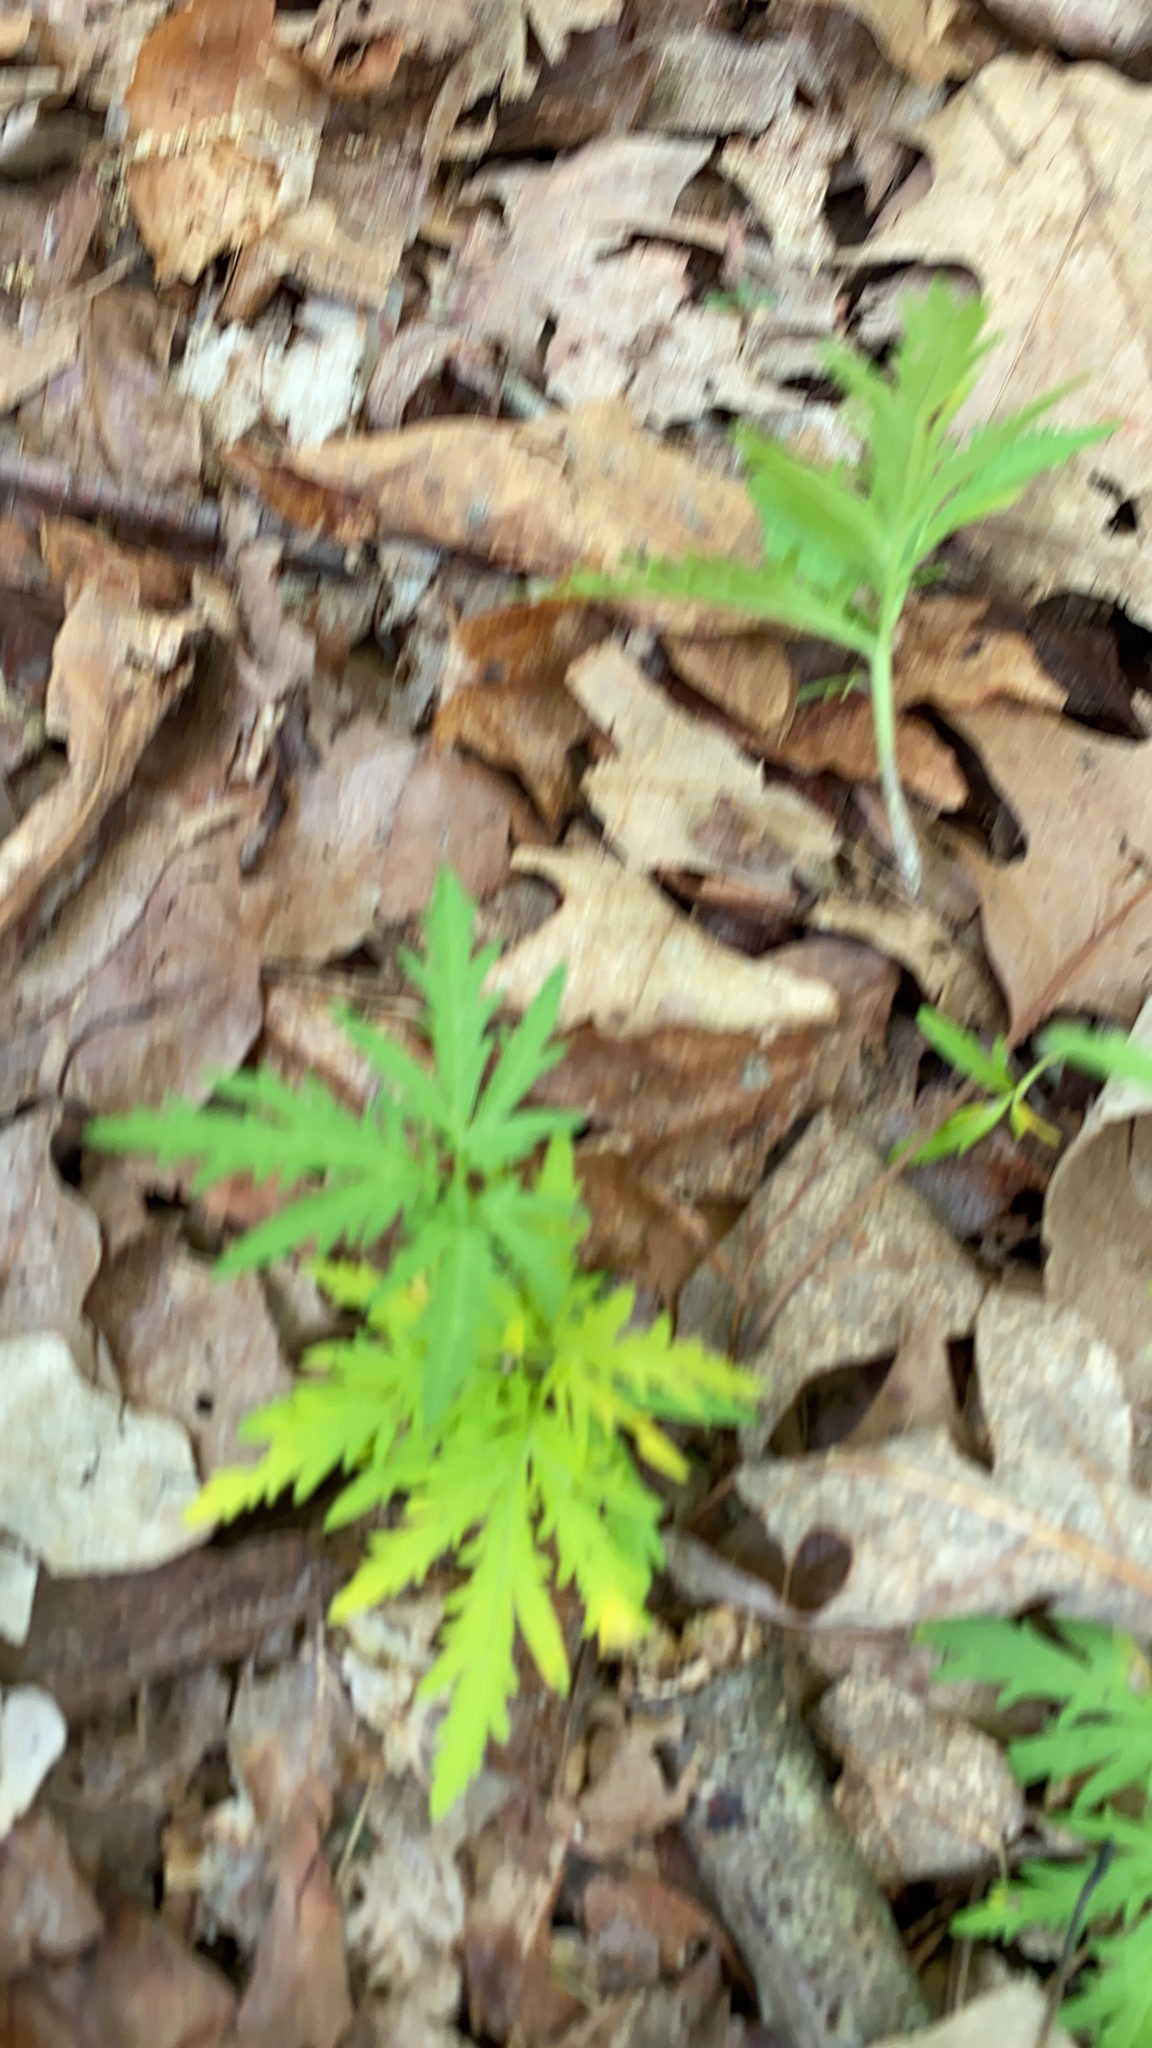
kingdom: Plantae
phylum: Tracheophyta
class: Magnoliopsida
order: Brassicales
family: Brassicaceae
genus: Cardamine
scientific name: Cardamine concatenata
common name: Cut-leaf toothcup
